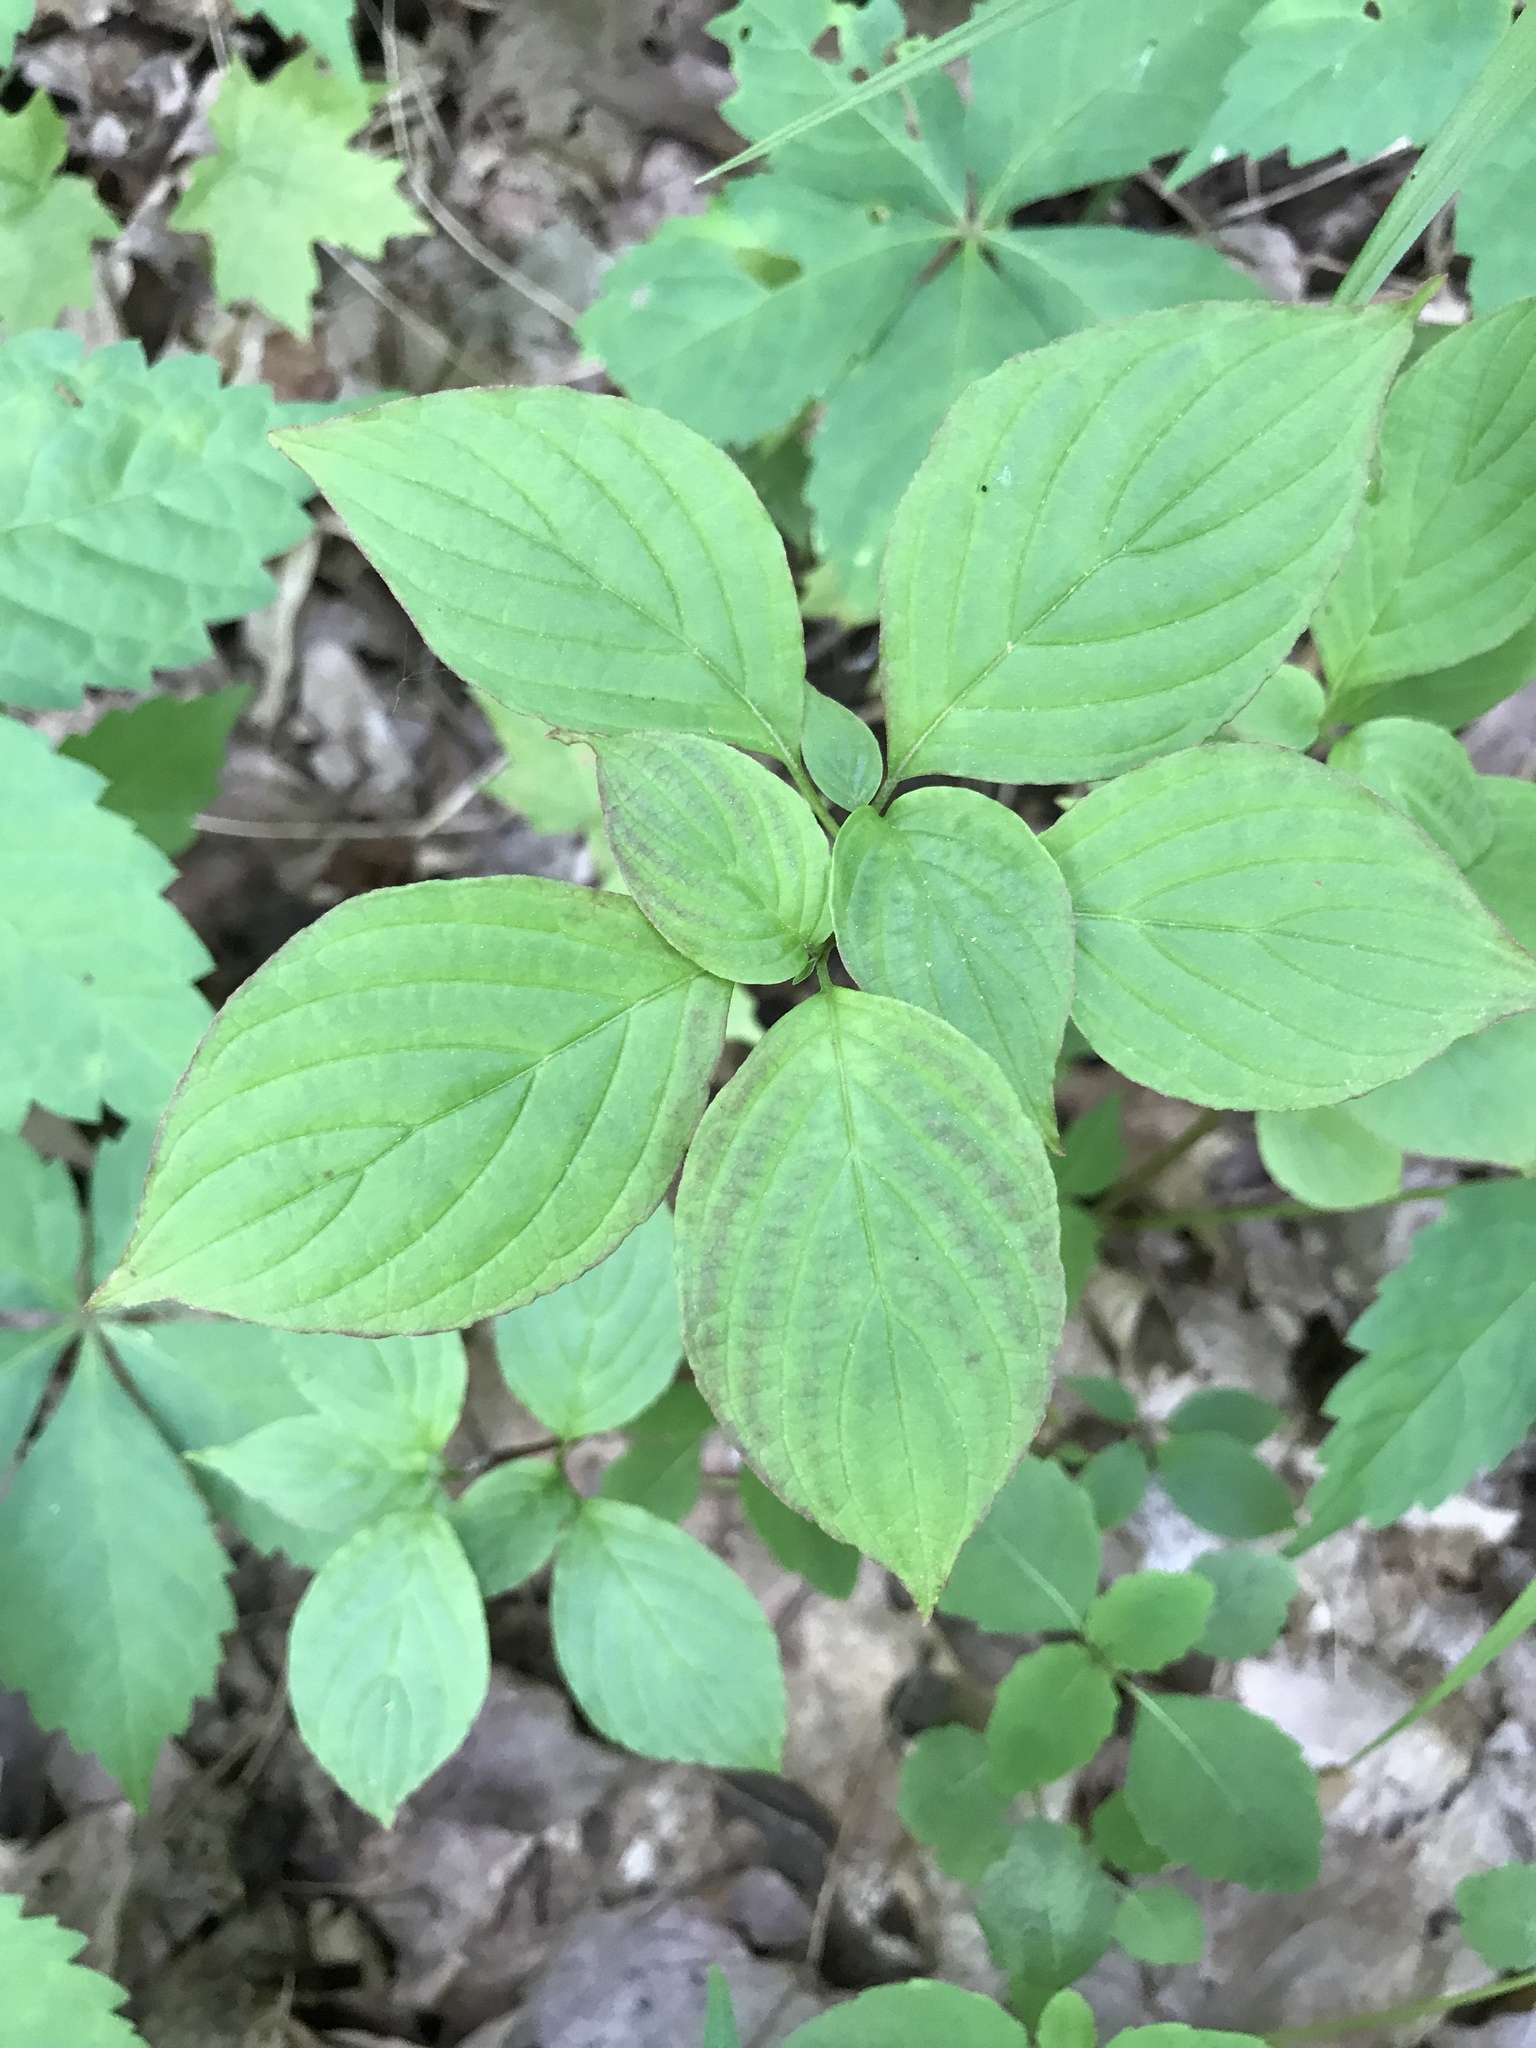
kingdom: Plantae
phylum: Tracheophyta
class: Magnoliopsida
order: Cornales
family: Cornaceae
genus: Cornus
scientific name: Cornus alternifolia
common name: Pagoda dogwood
